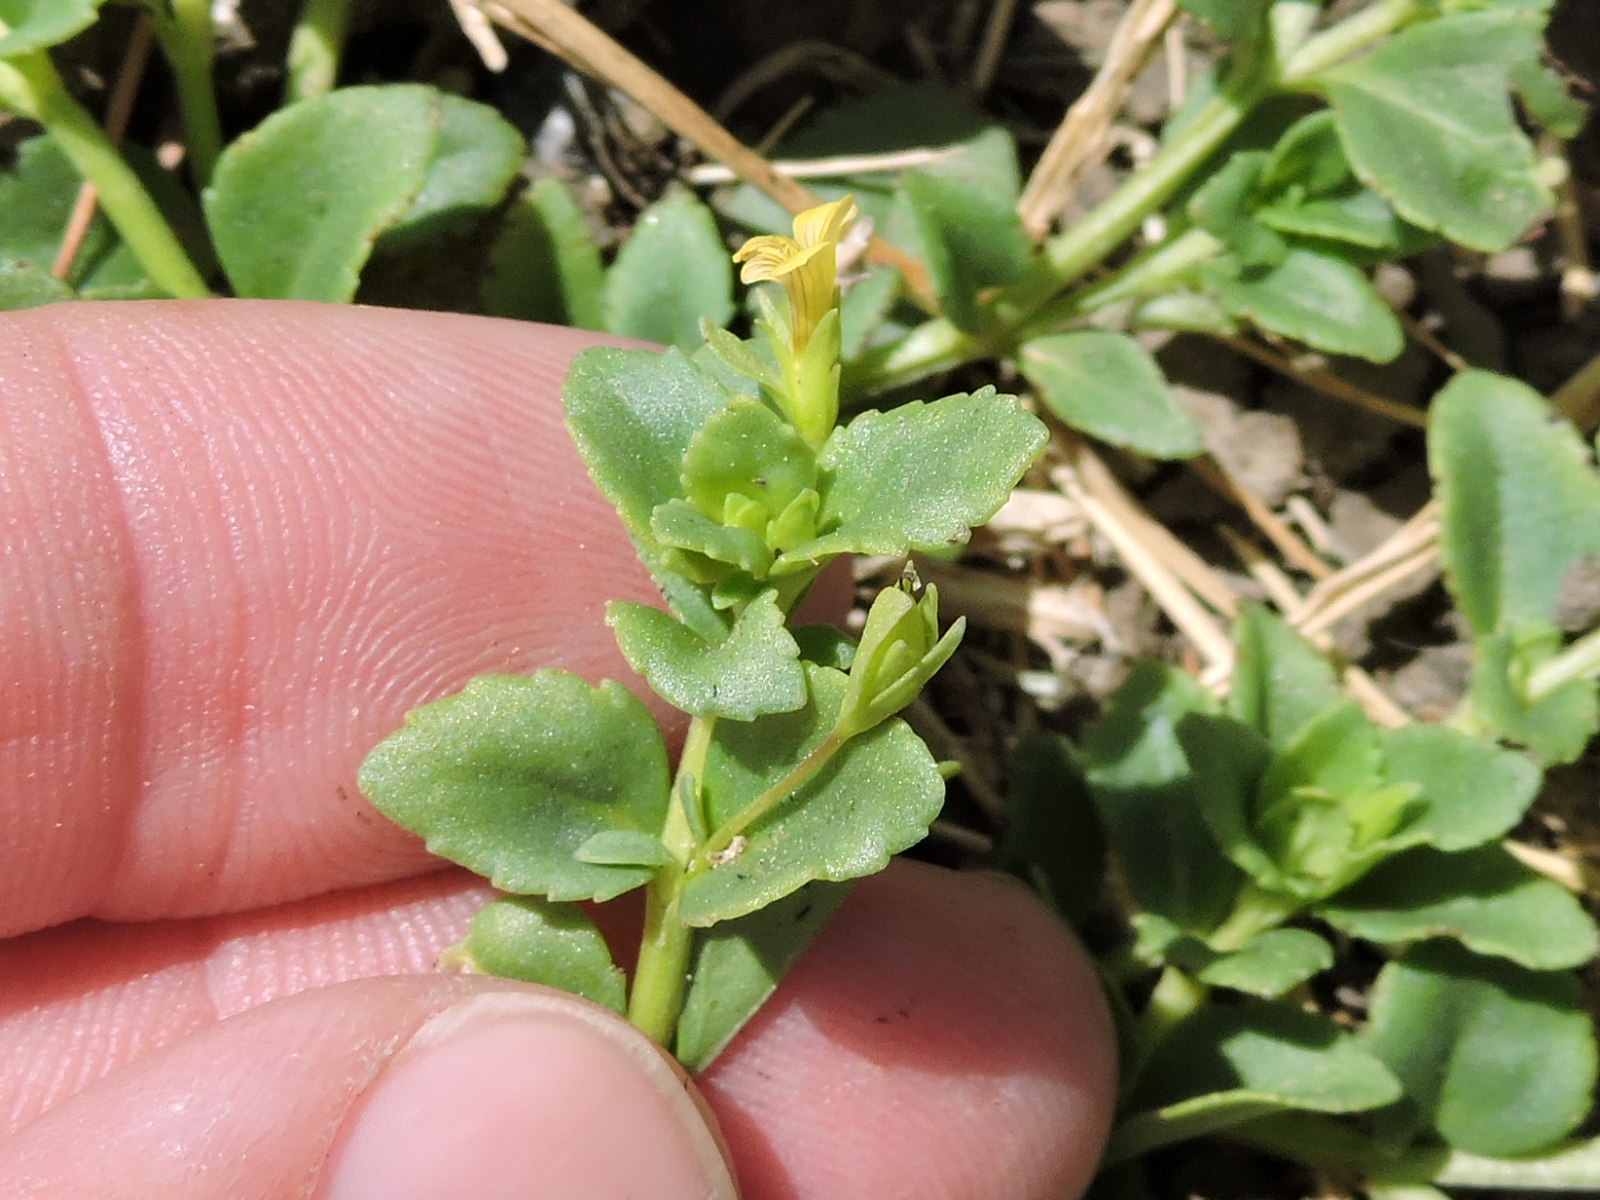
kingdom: Plantae
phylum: Tracheophyta
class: Magnoliopsida
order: Lamiales
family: Plantaginaceae
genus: Mecardonia
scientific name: Mecardonia procumbens
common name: Baby jump-up
